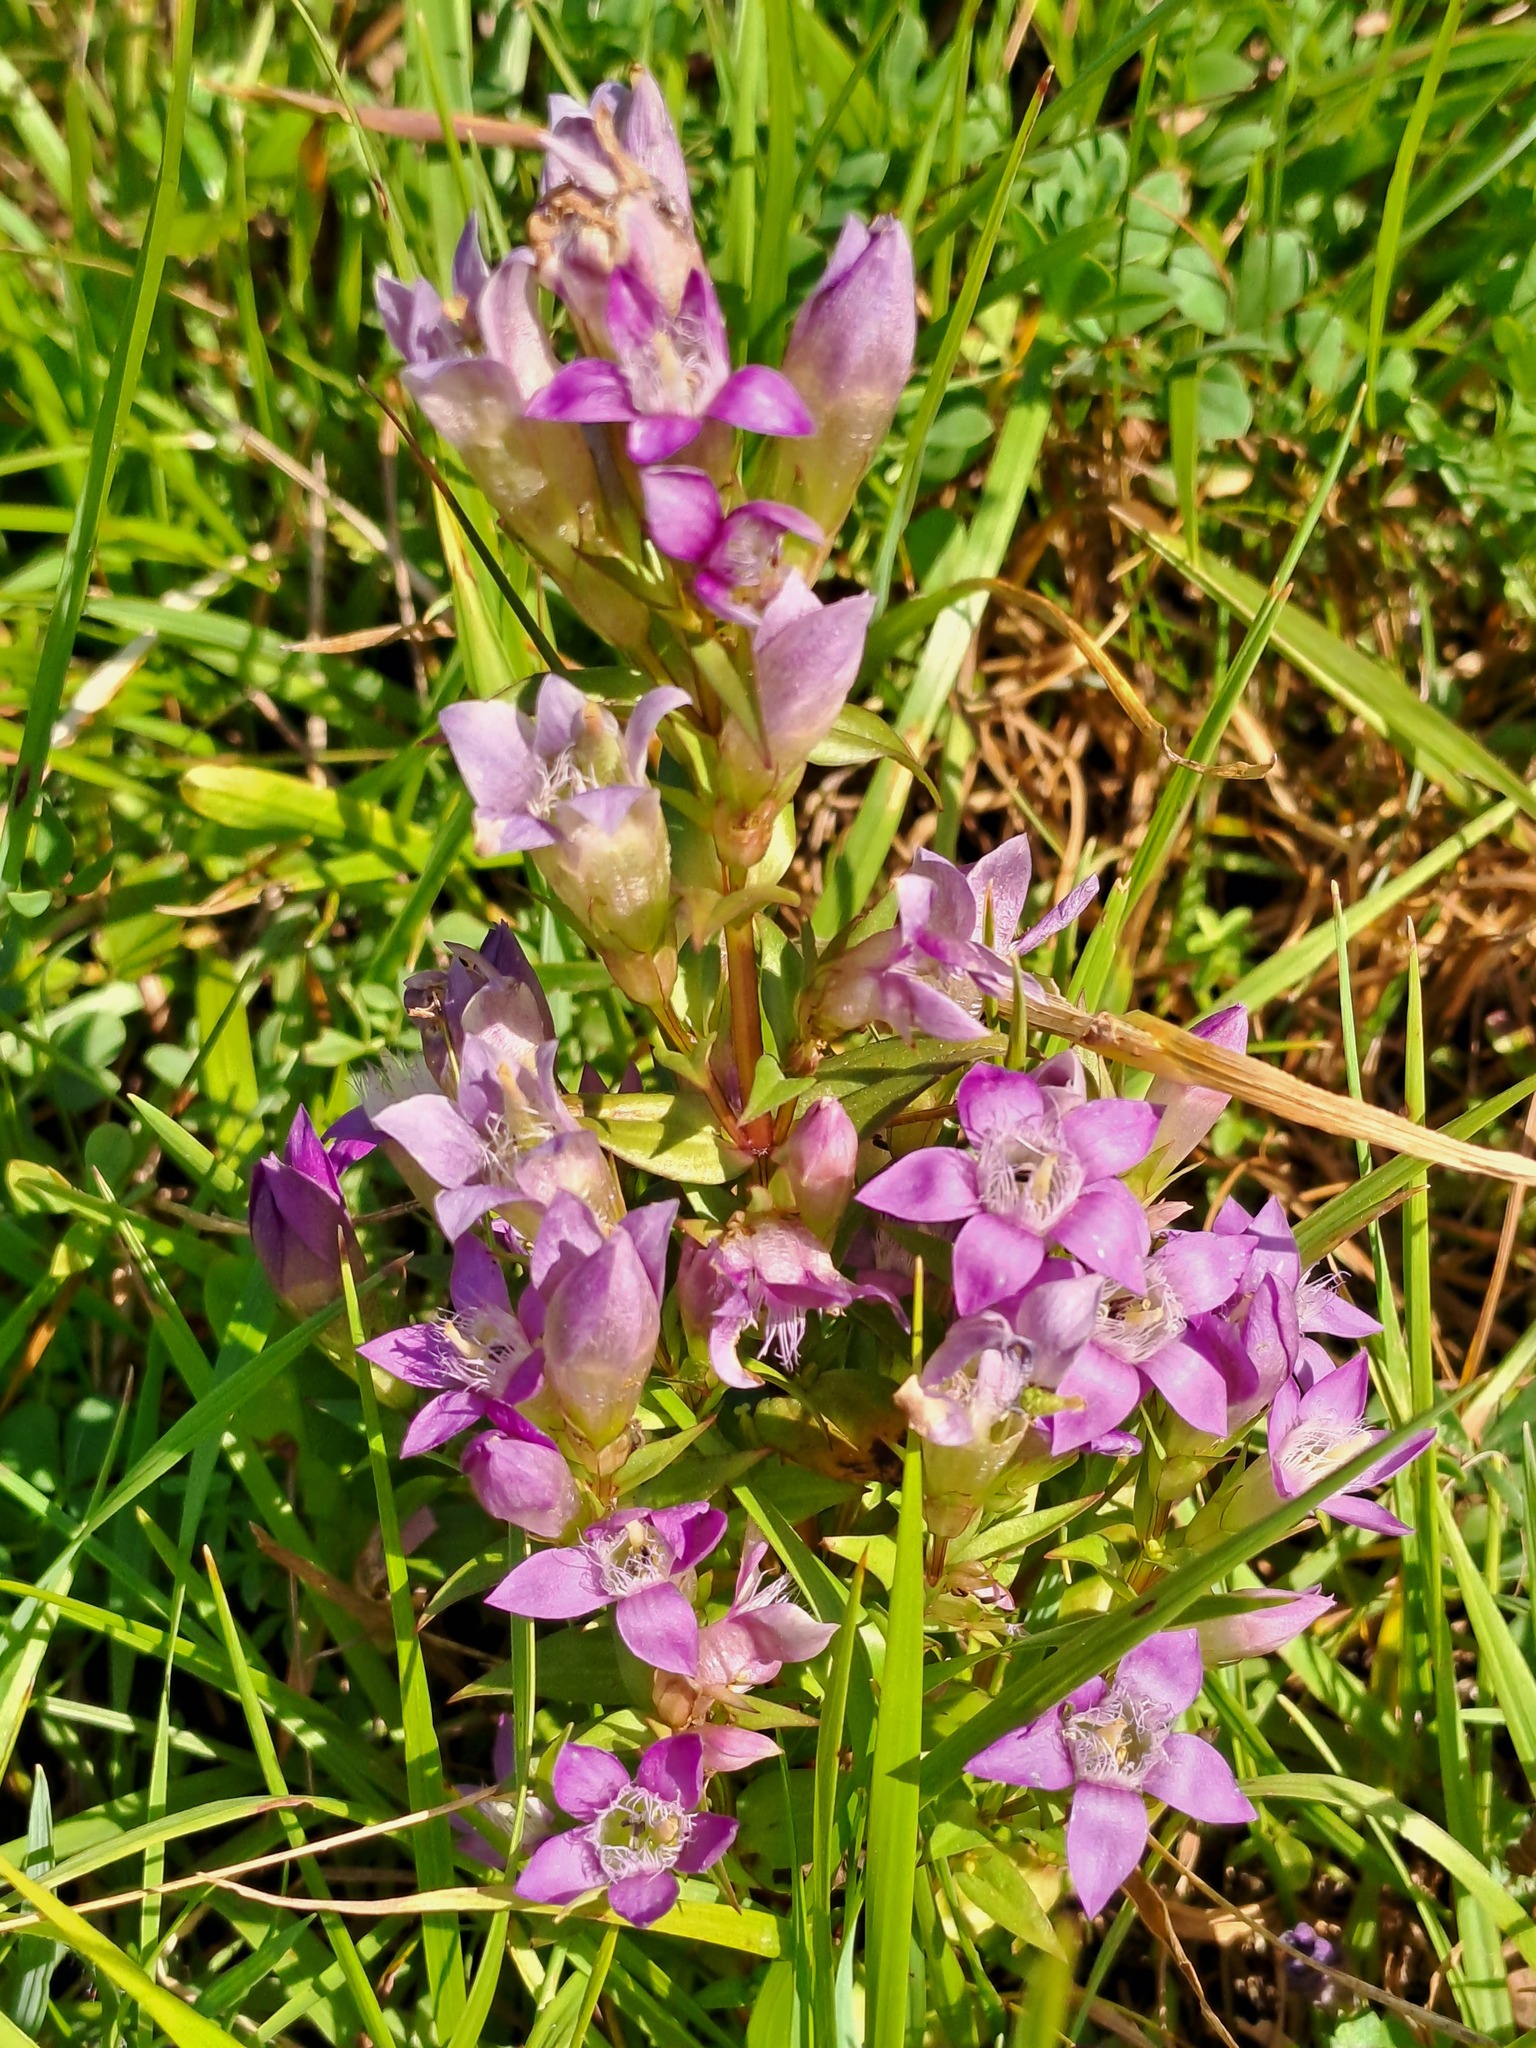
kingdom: Plantae
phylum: Tracheophyta
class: Magnoliopsida
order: Gentianales
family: Gentianaceae
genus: Gentianella
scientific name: Gentianella germanica
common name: Chiltern-gentian
